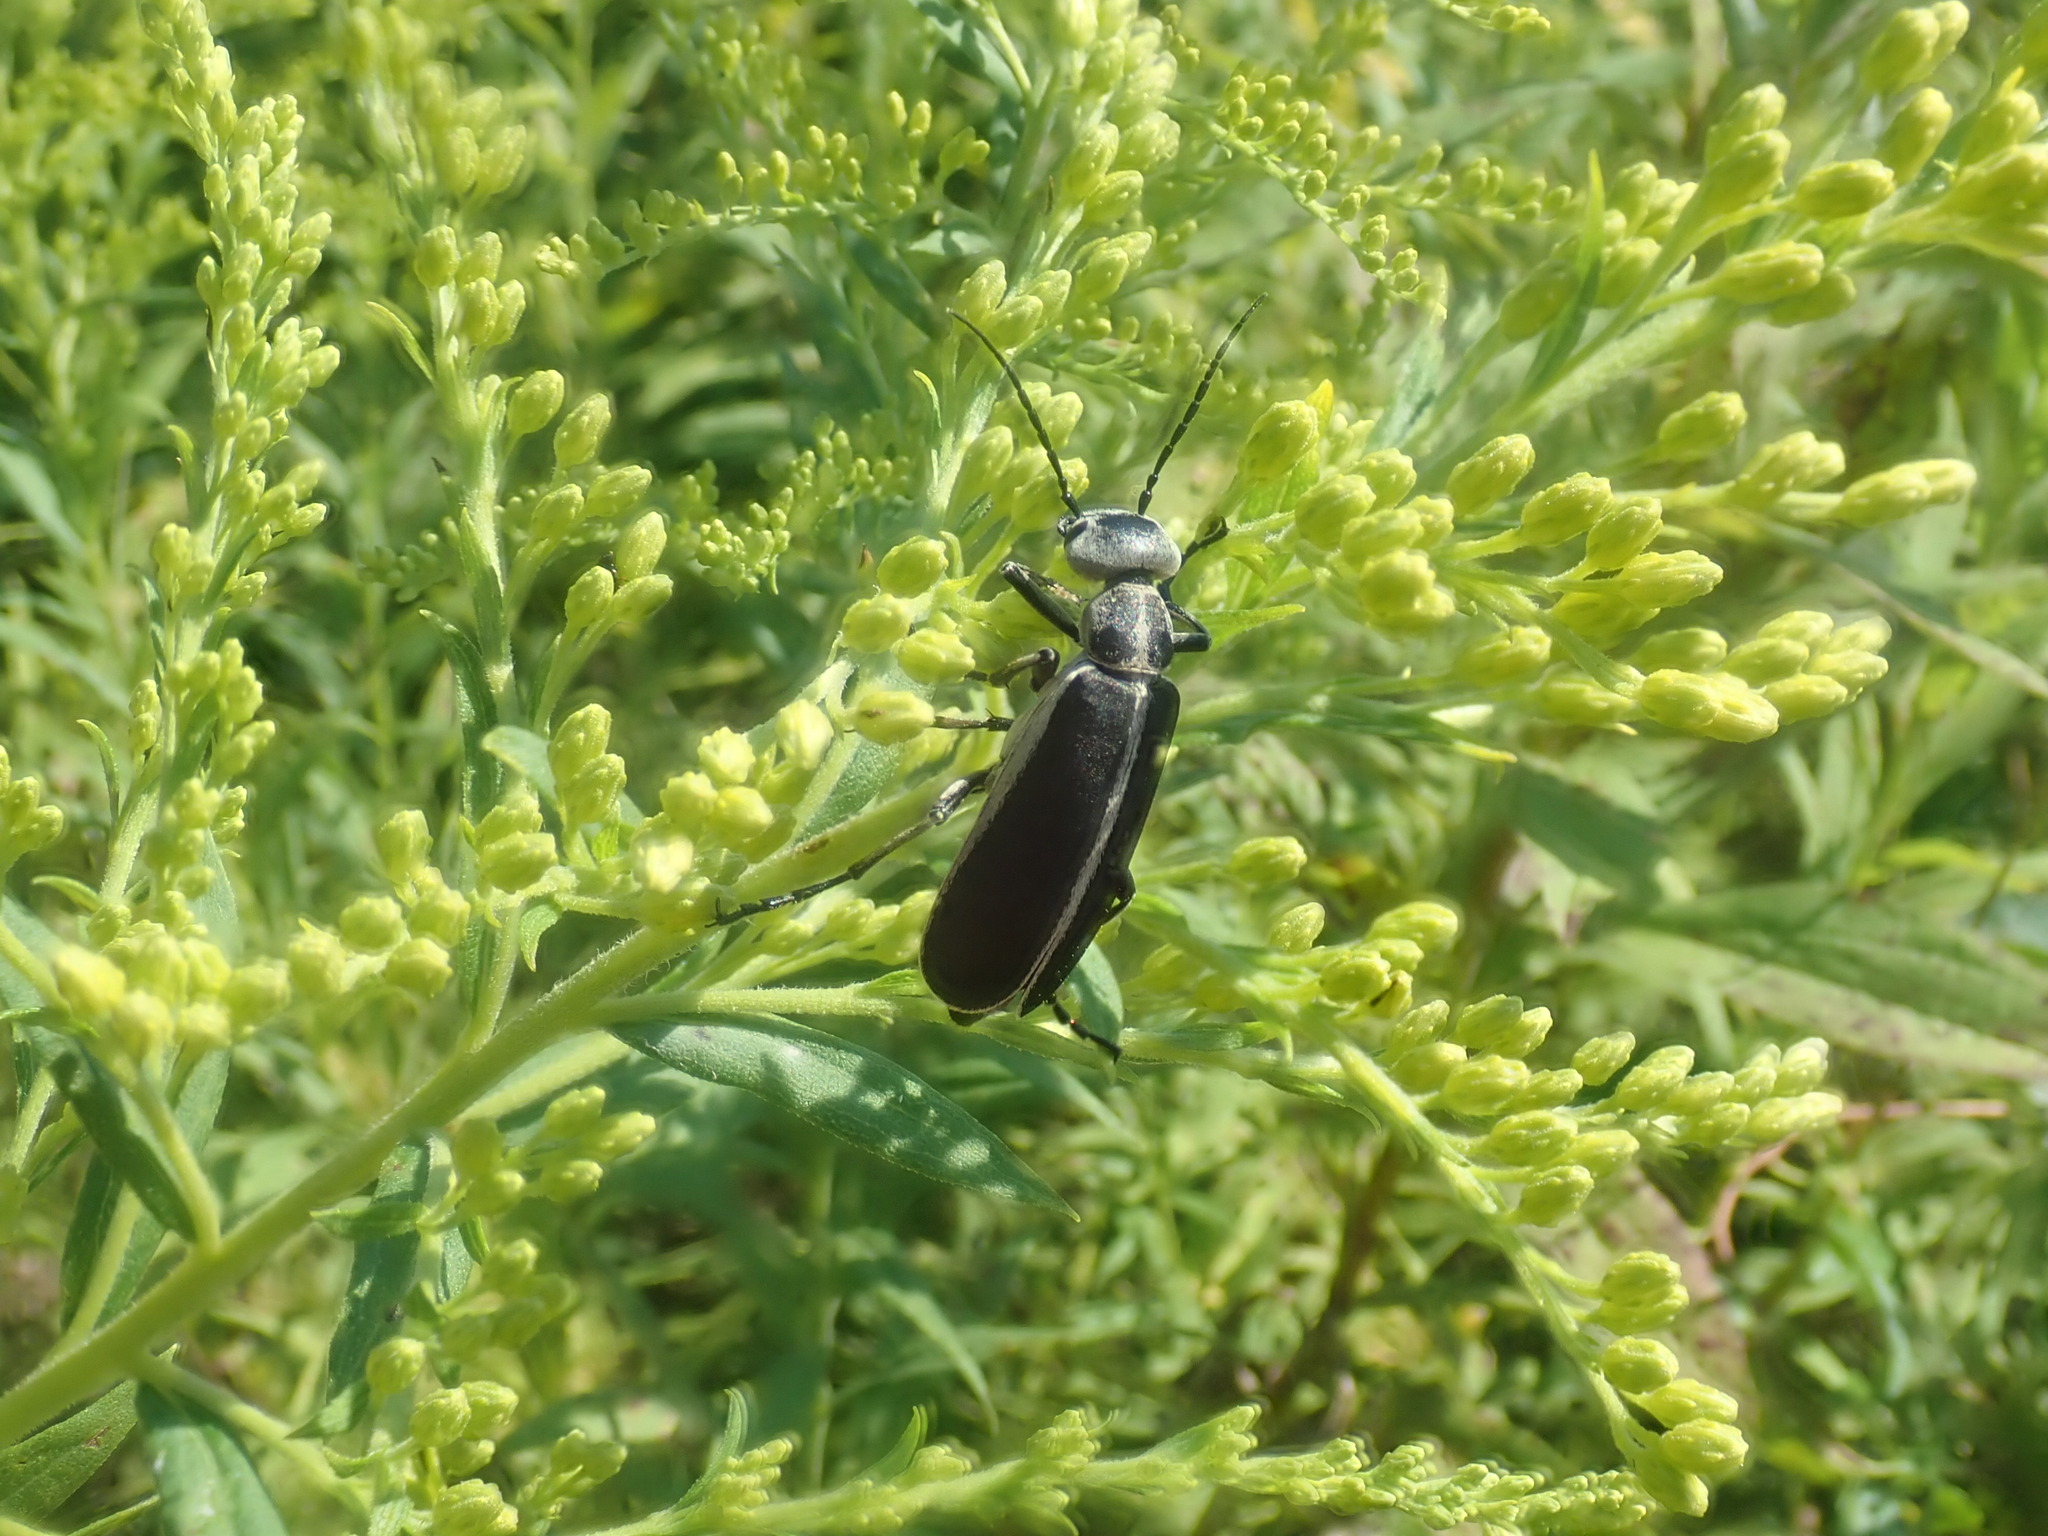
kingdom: Animalia
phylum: Arthropoda
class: Insecta
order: Coleoptera
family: Meloidae
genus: Epicauta
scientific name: Epicauta funebris
